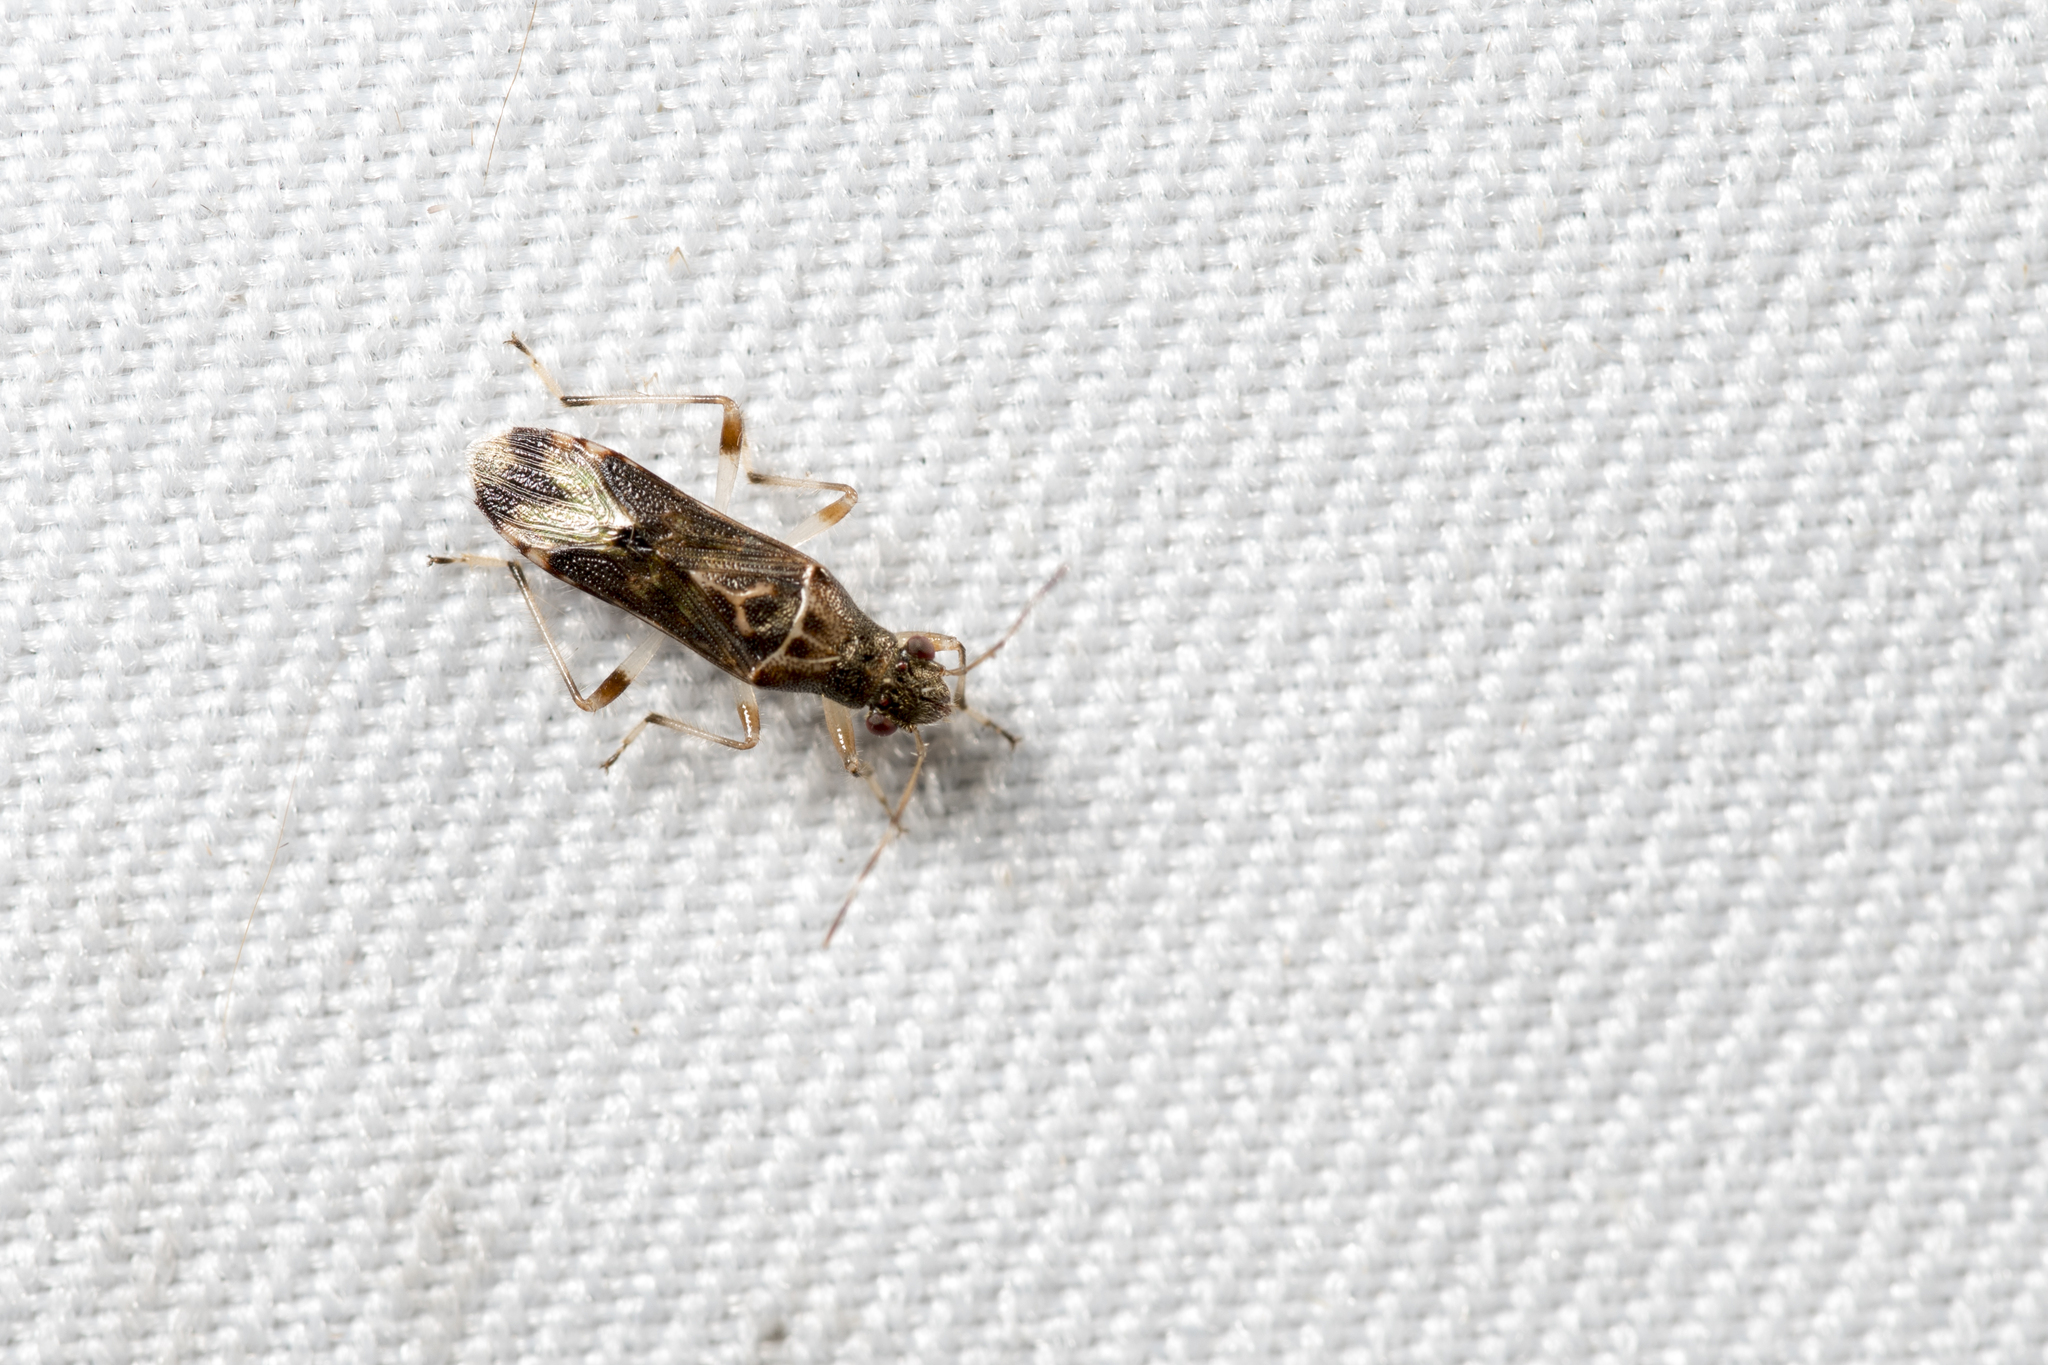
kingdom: Animalia
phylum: Arthropoda
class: Insecta
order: Hemiptera
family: Heterogastridae
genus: Parathyginus
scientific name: Parathyginus signifer
